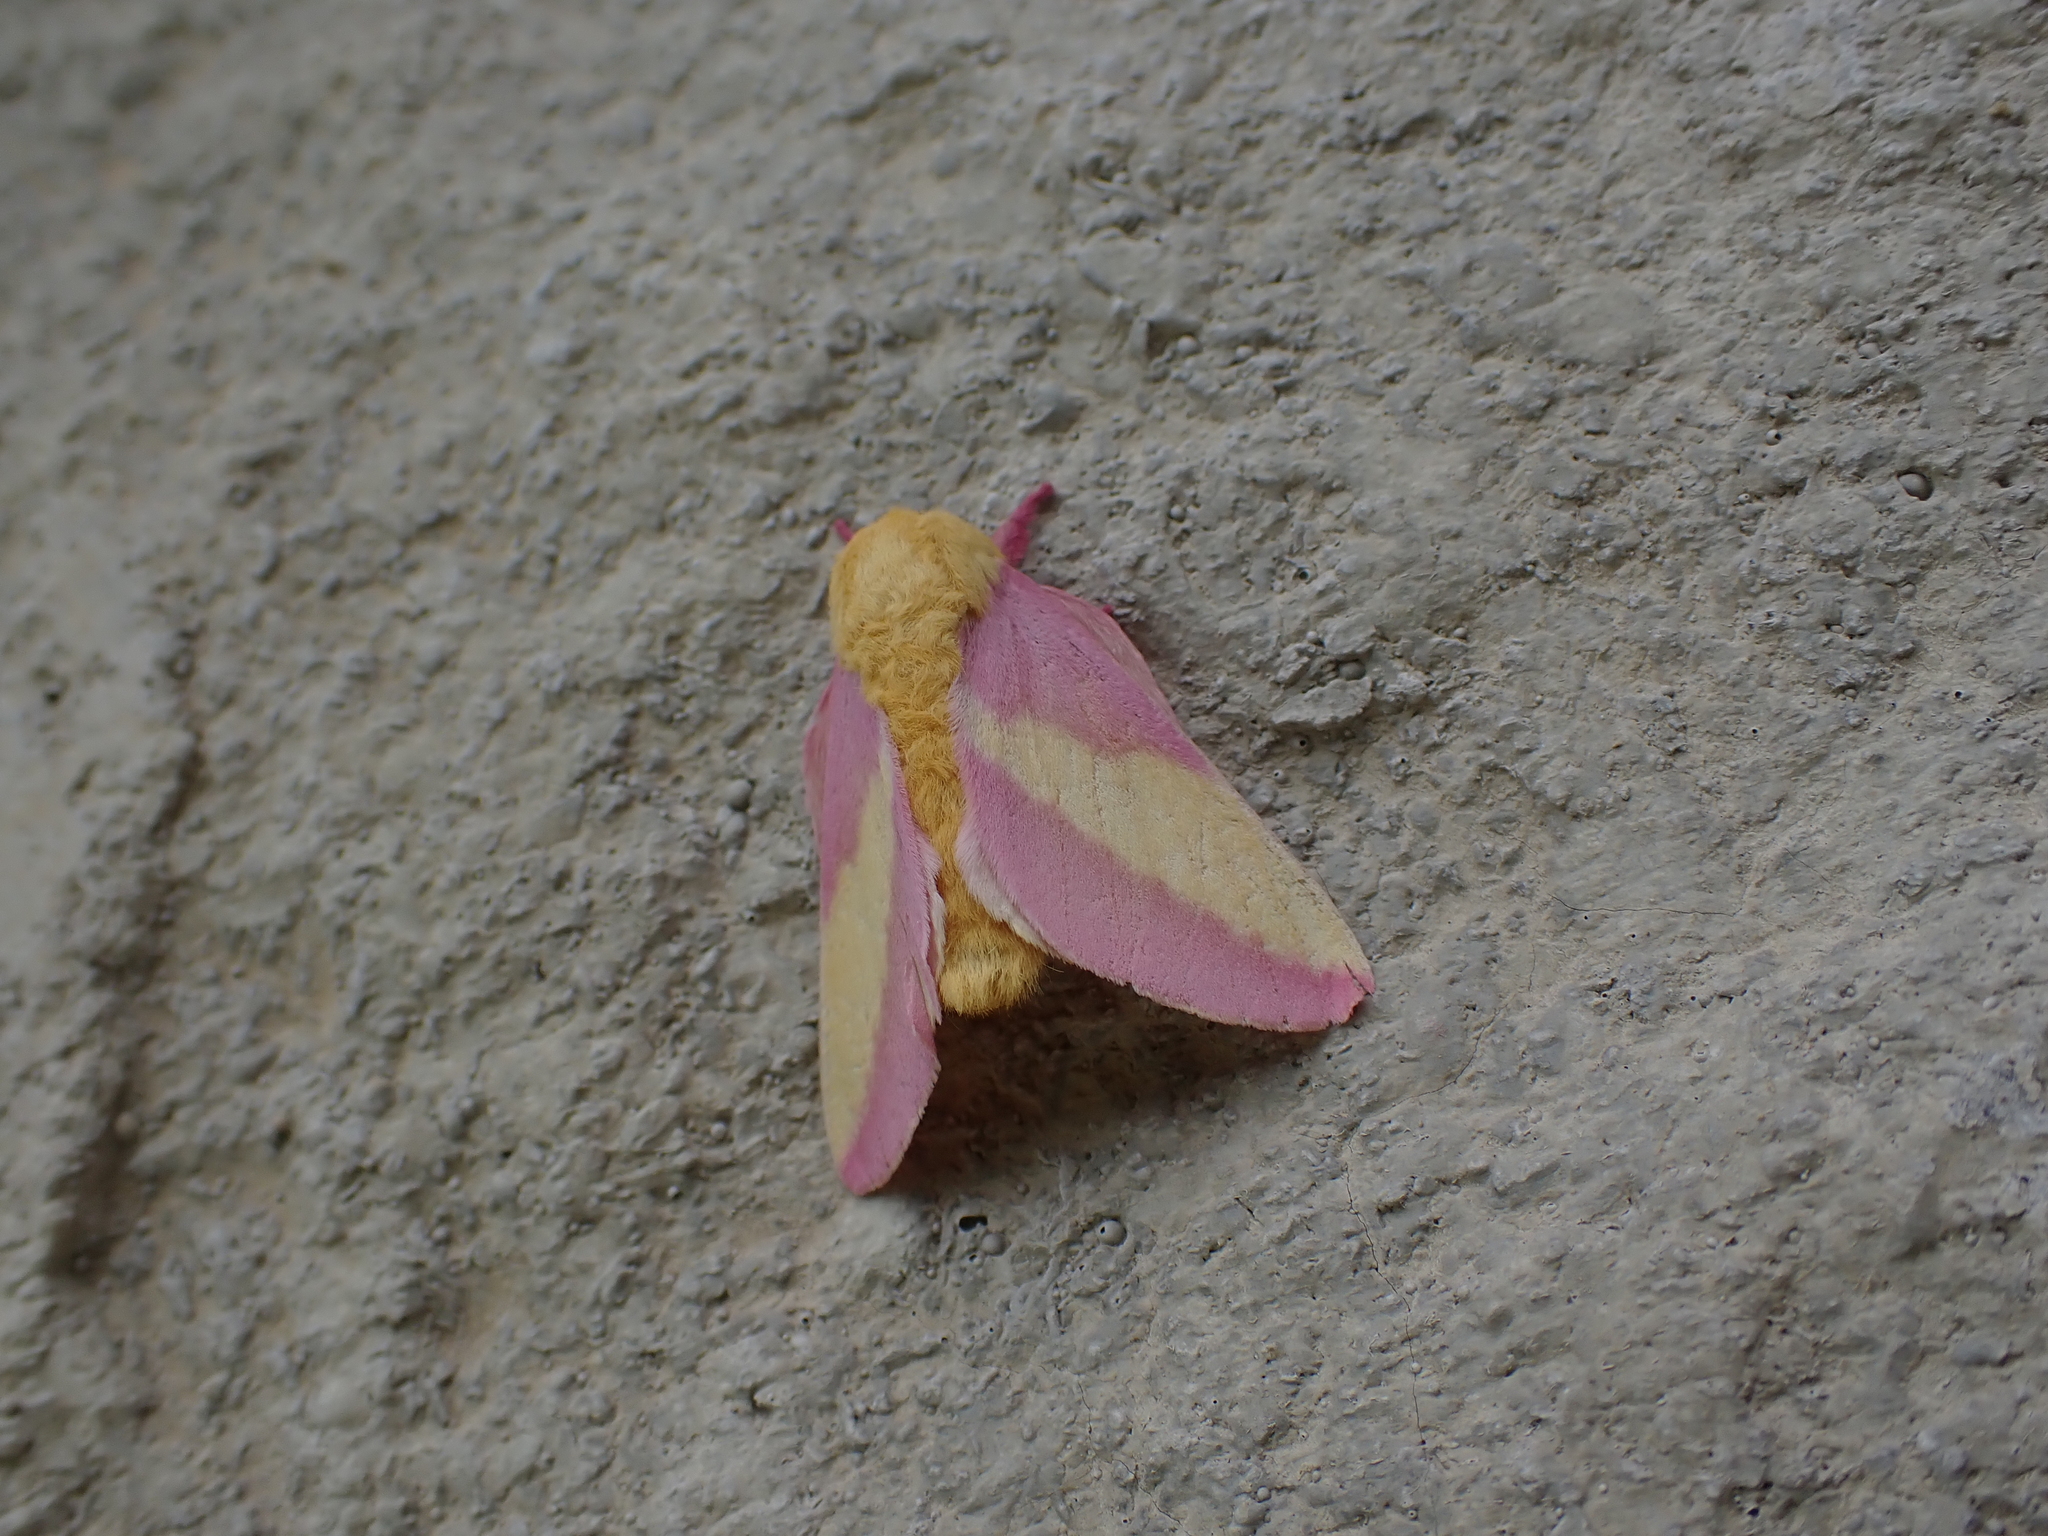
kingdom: Animalia
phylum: Arthropoda
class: Insecta
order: Lepidoptera
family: Saturniidae
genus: Dryocampa
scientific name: Dryocampa rubicunda
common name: Rosy maple moth
